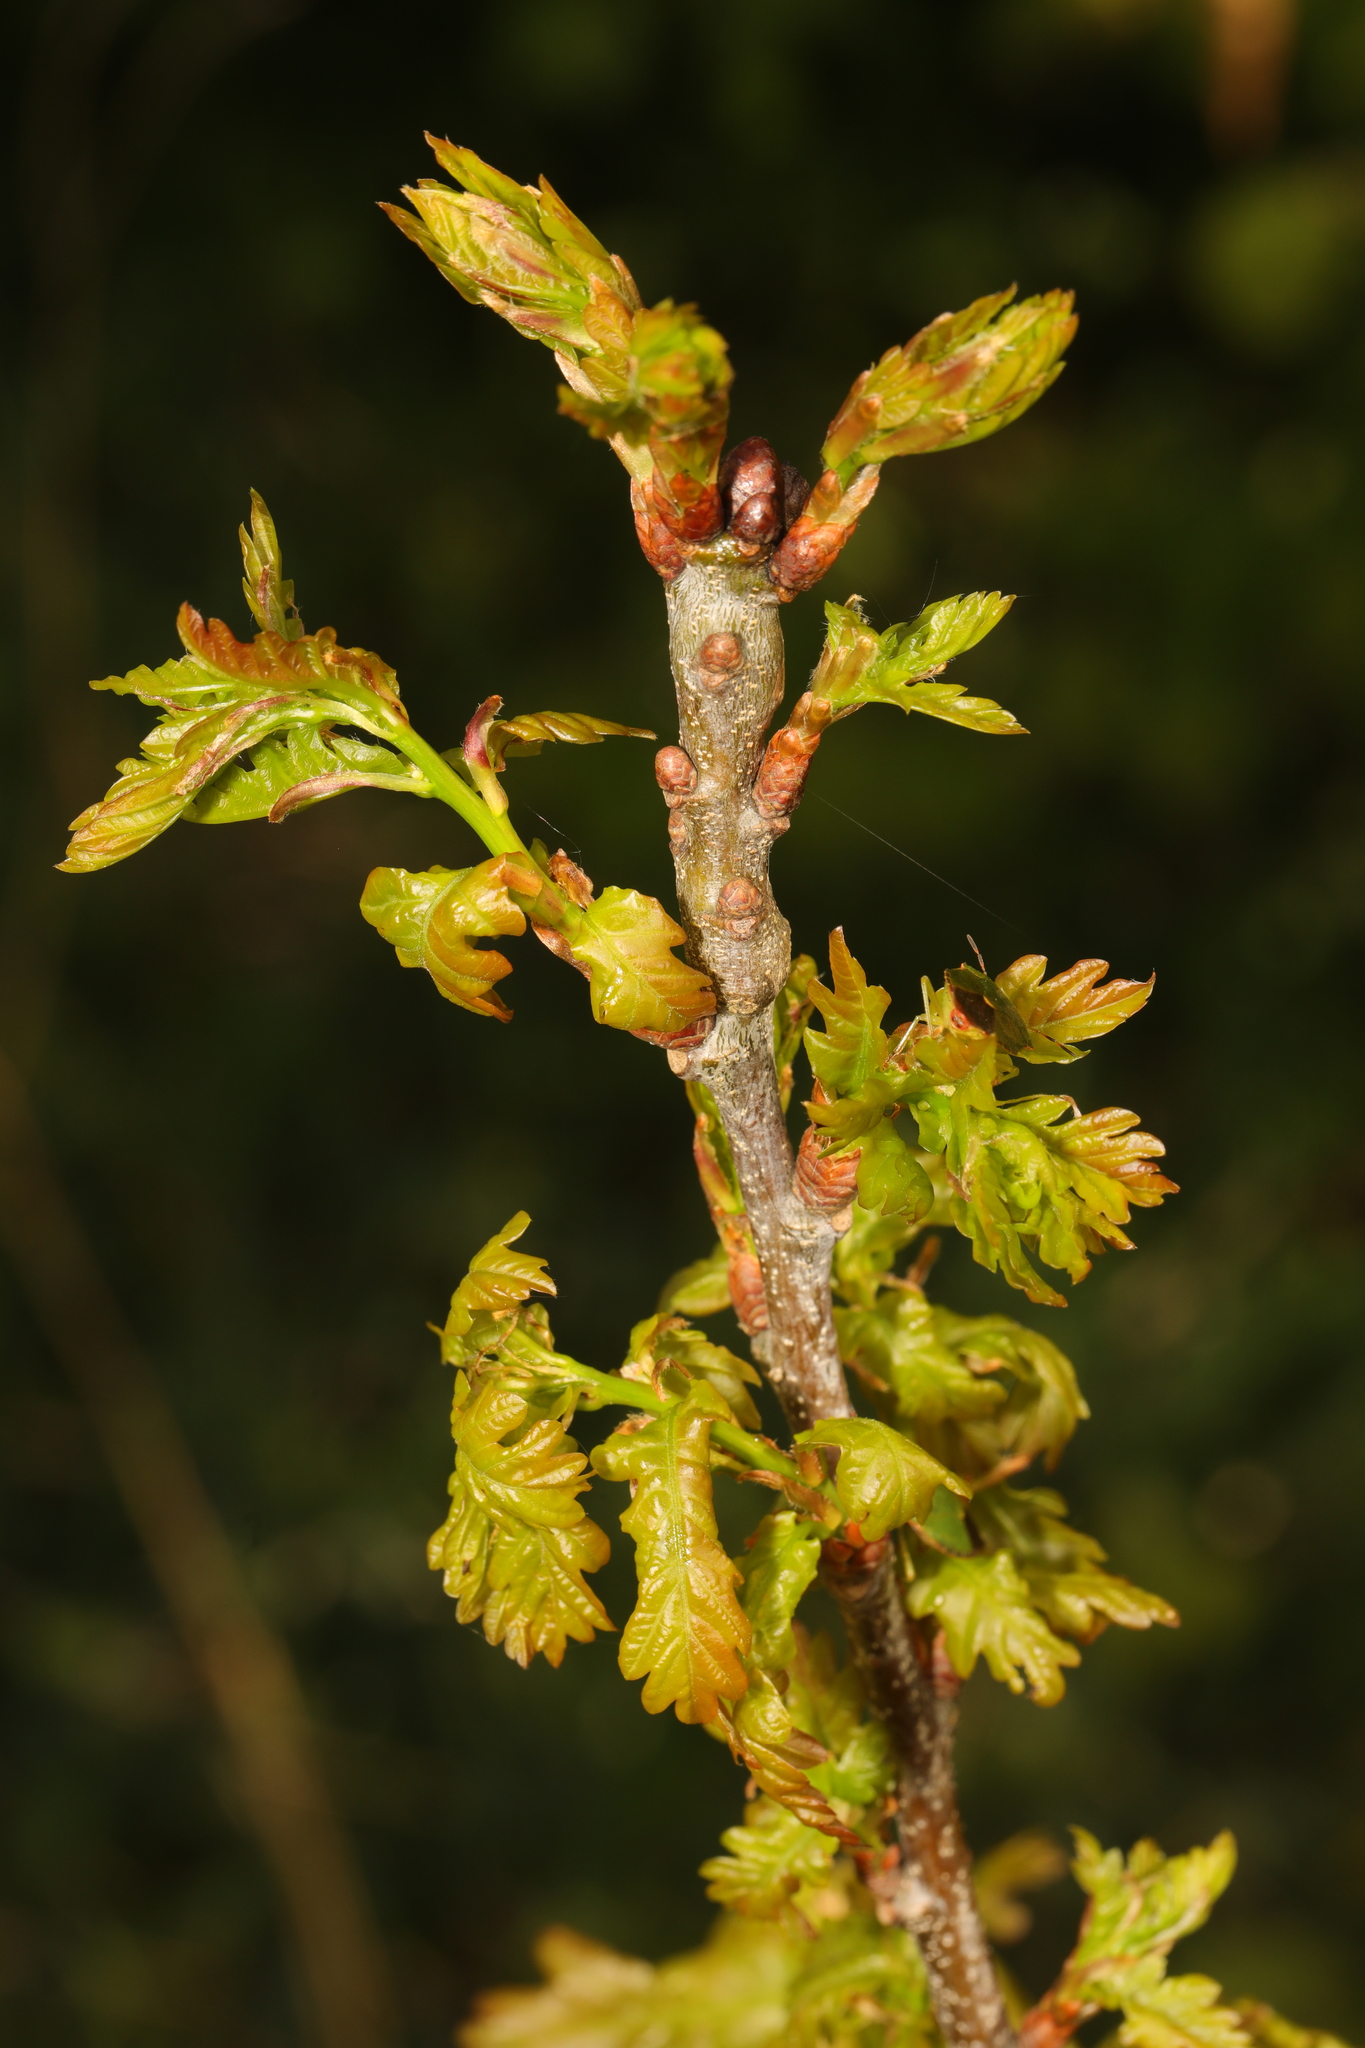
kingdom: Plantae
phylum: Tracheophyta
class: Magnoliopsida
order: Fagales
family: Fagaceae
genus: Quercus
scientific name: Quercus robur
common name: Pedunculate oak
